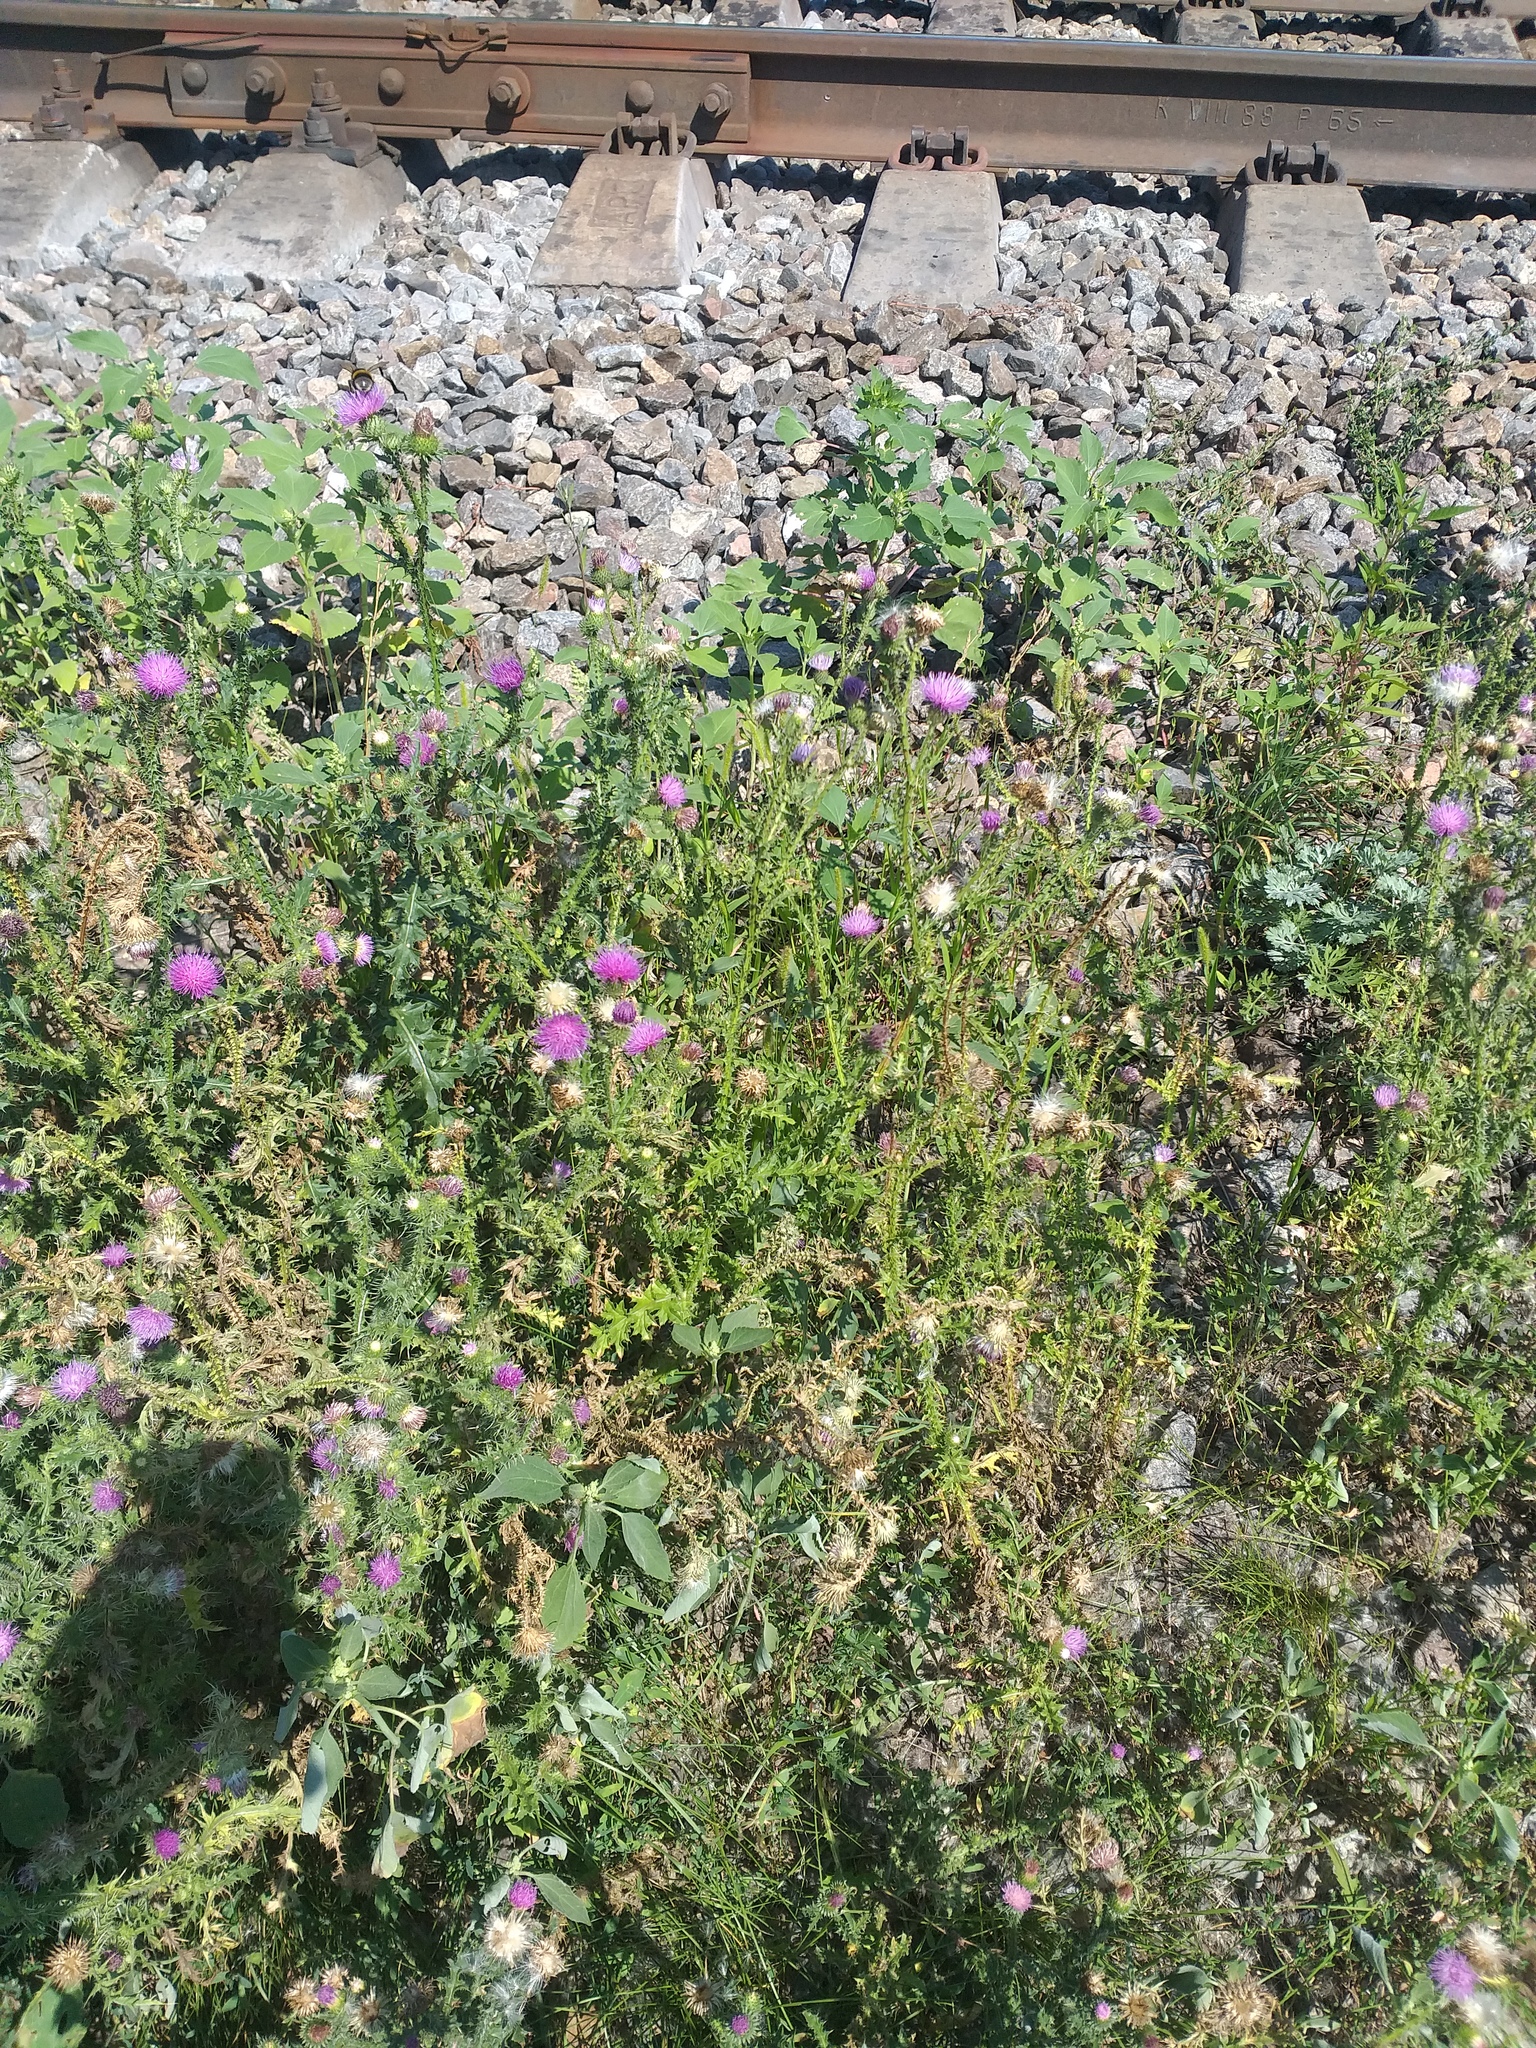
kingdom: Plantae
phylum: Tracheophyta
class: Magnoliopsida
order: Asterales
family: Asteraceae
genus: Carduus
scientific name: Carduus acanthoides
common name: Plumeless thistle
